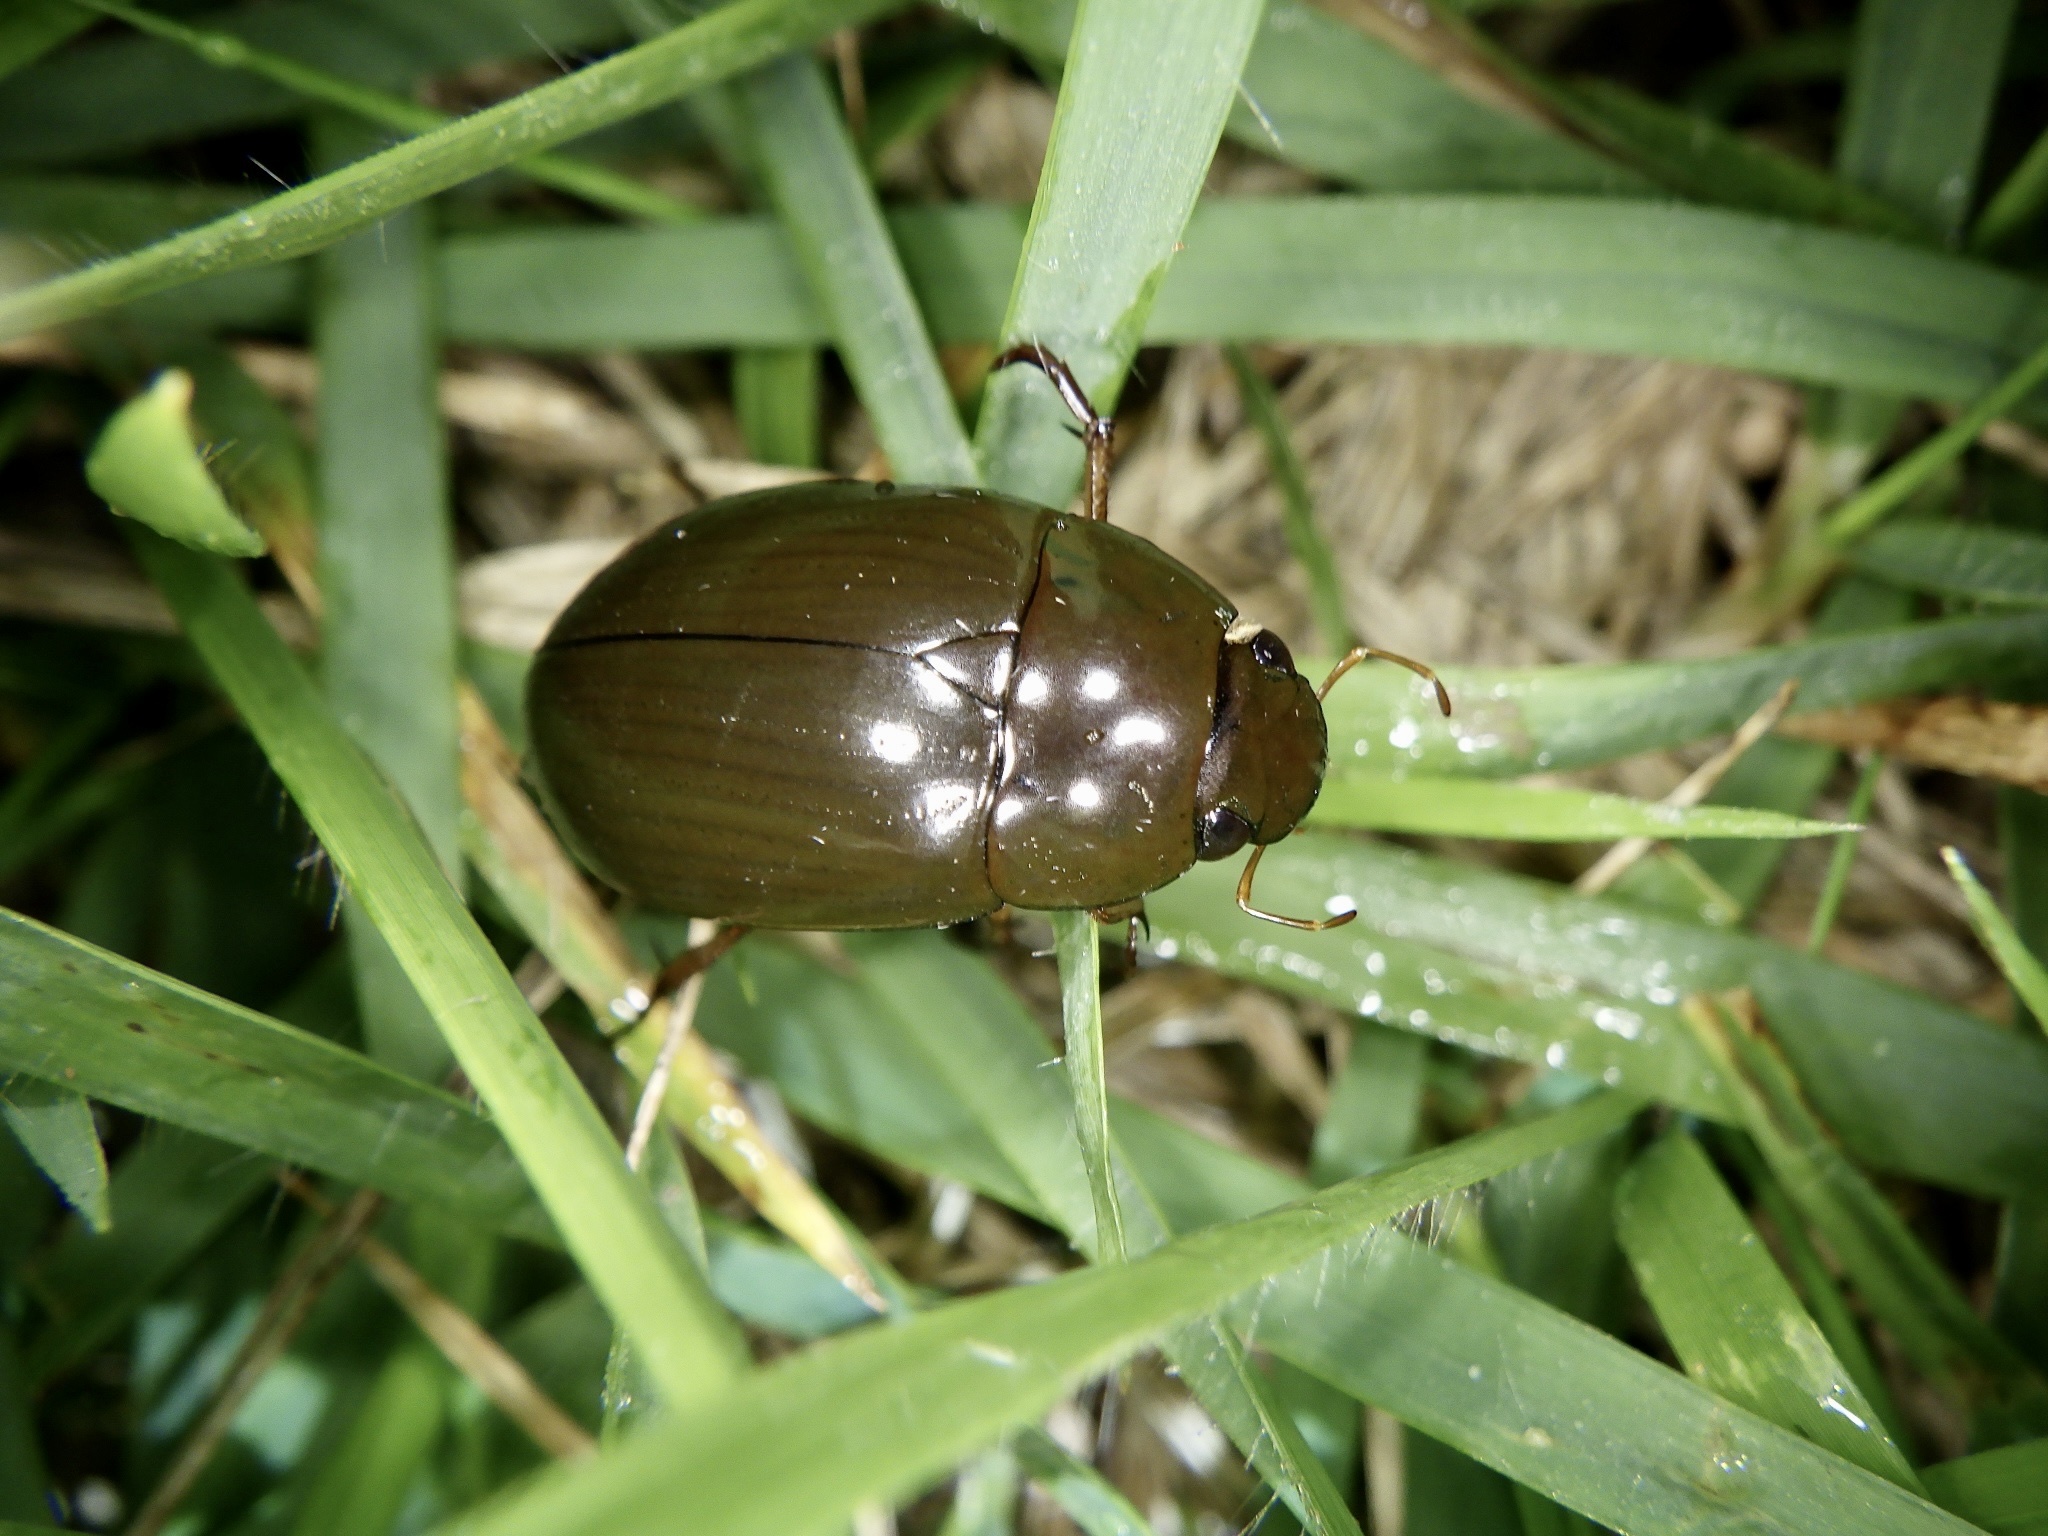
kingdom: Animalia
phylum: Arthropoda
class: Insecta
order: Coleoptera
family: Hydrophilidae
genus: Hydrochara
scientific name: Hydrochara affinis
